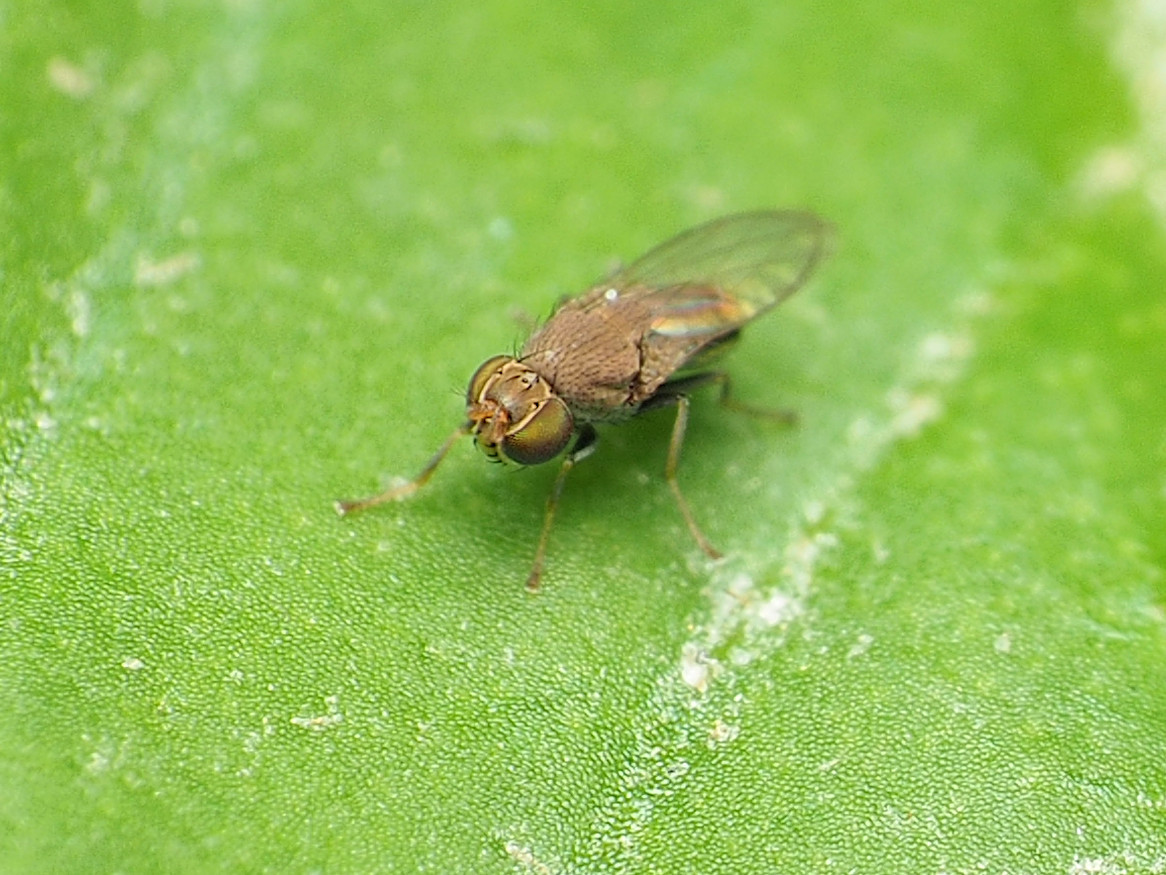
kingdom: Animalia
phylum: Arthropoda
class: Insecta
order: Diptera
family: Ephydridae
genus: Aquachasma
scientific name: Aquachasma leucoproctum
